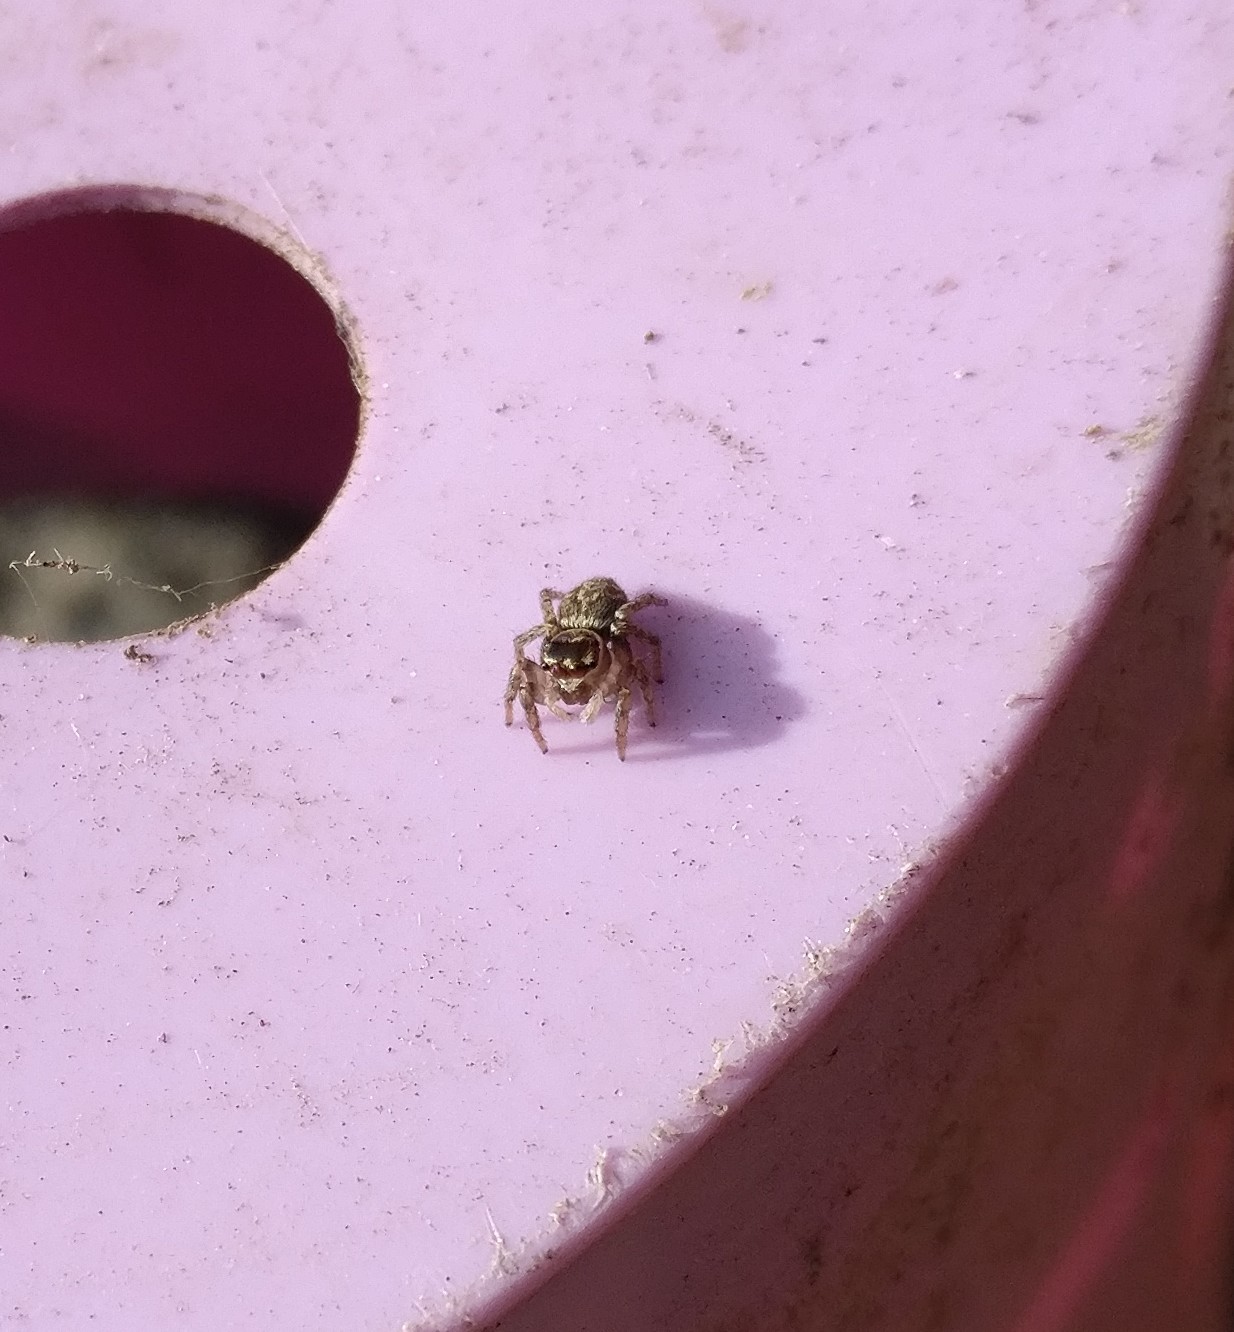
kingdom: Animalia
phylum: Arthropoda
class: Arachnida
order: Araneae
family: Salticidae
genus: Maratus
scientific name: Maratus griseus
